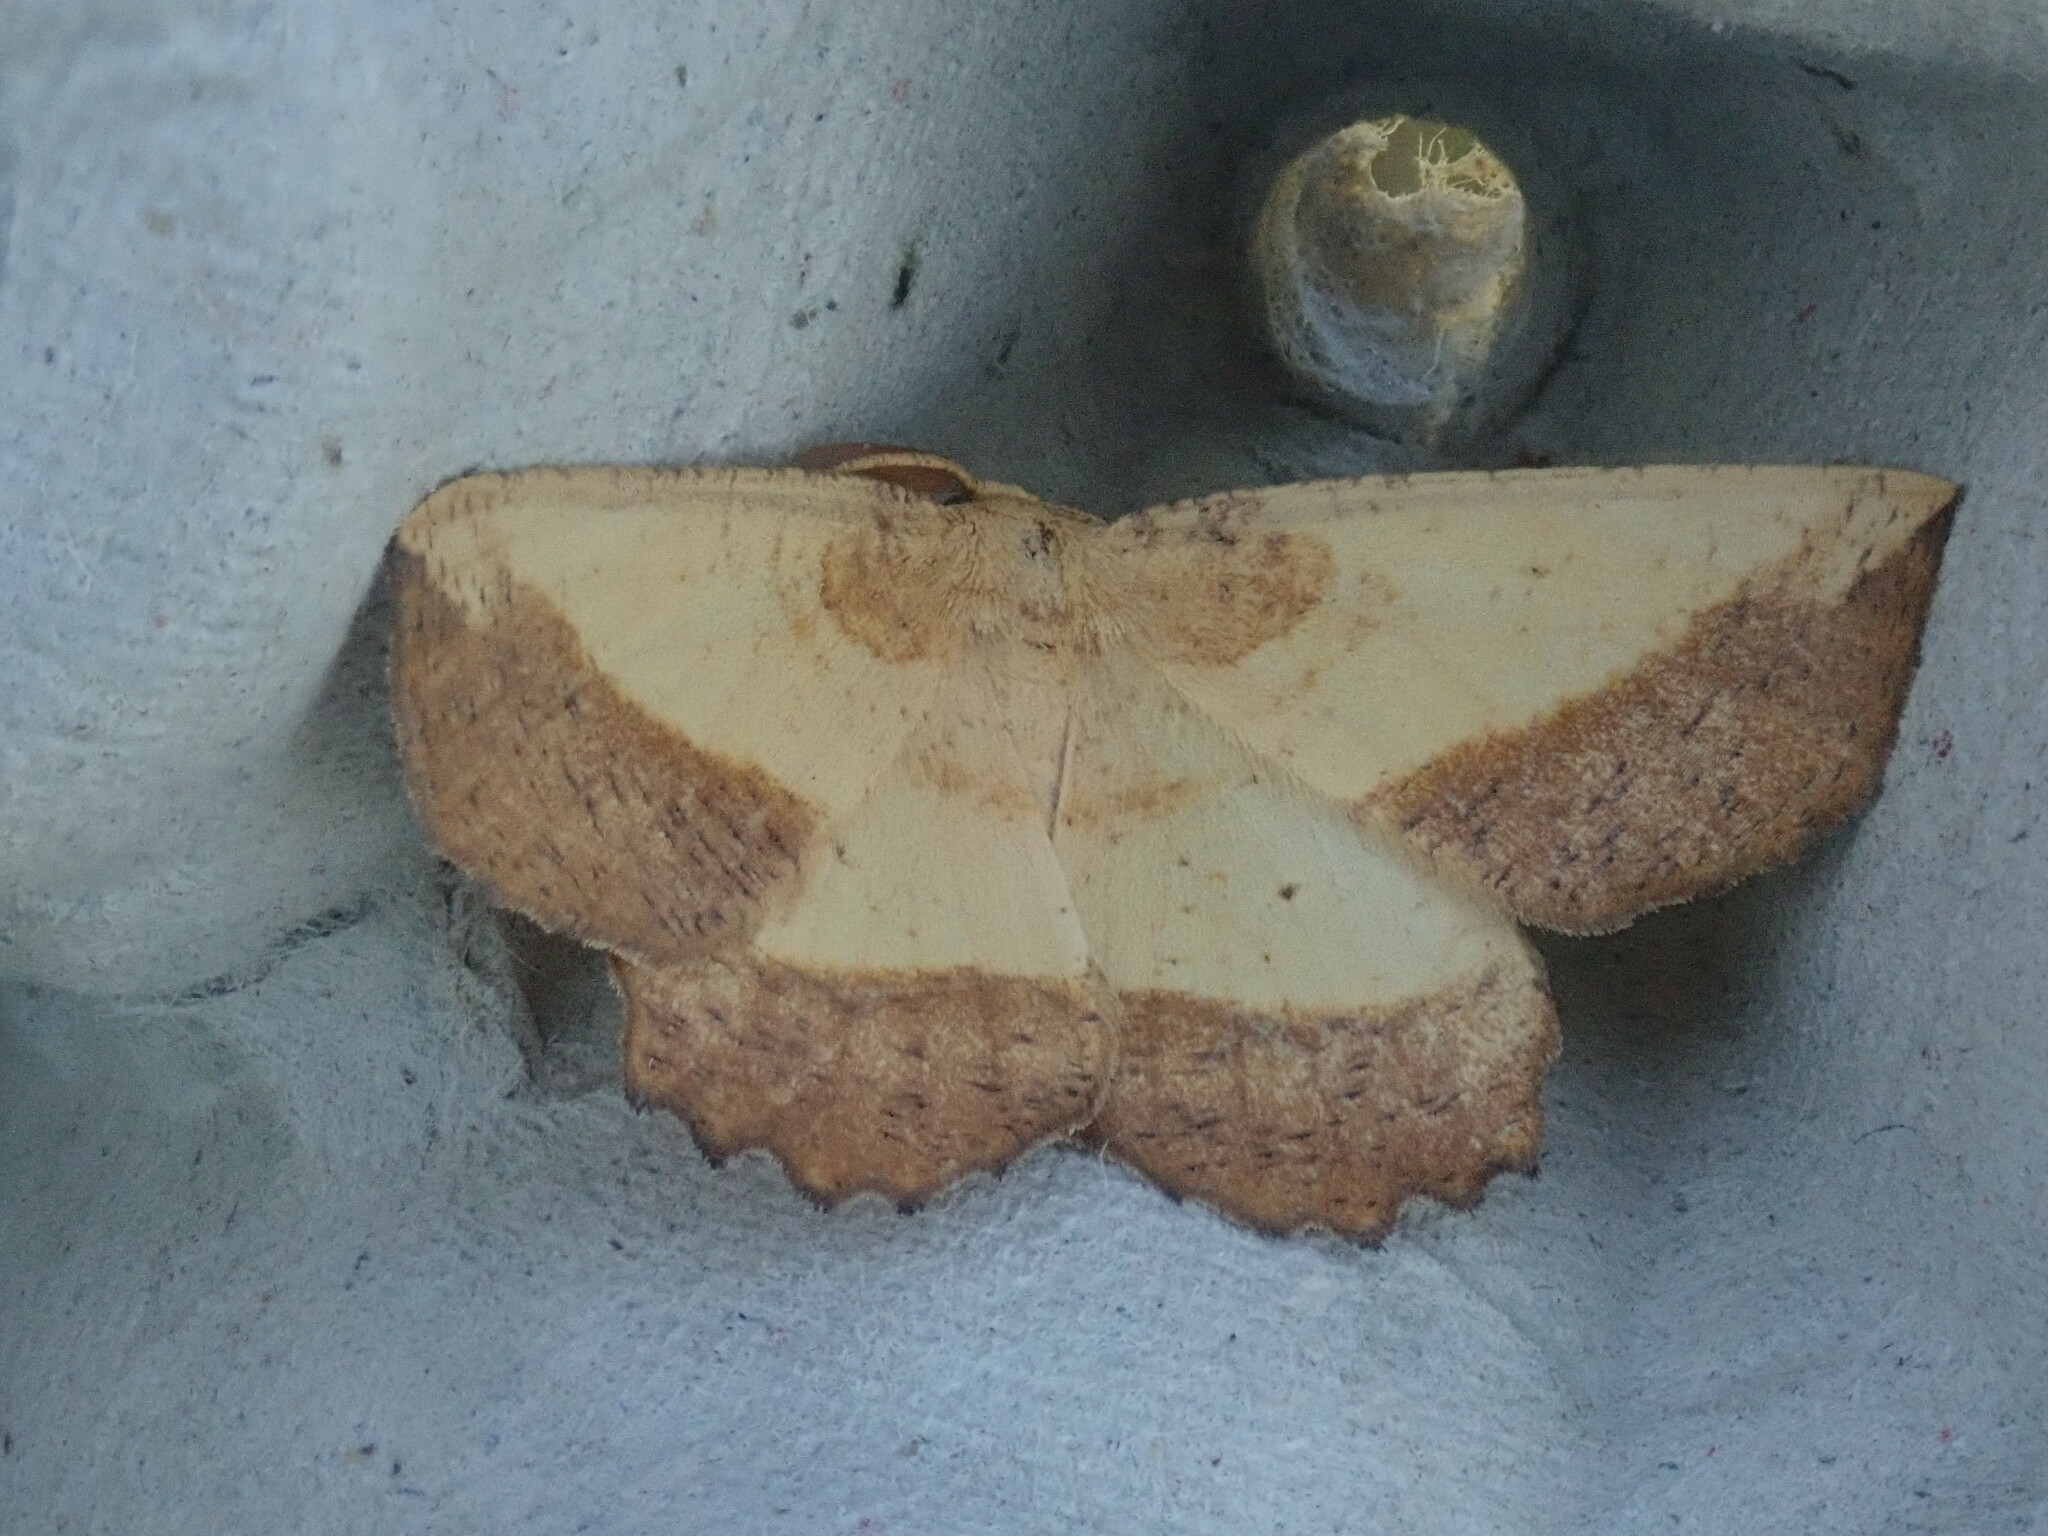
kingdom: Animalia
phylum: Arthropoda
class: Insecta
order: Lepidoptera
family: Geometridae
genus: Euchlaena
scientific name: Euchlaena serrata
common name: Saw wing
